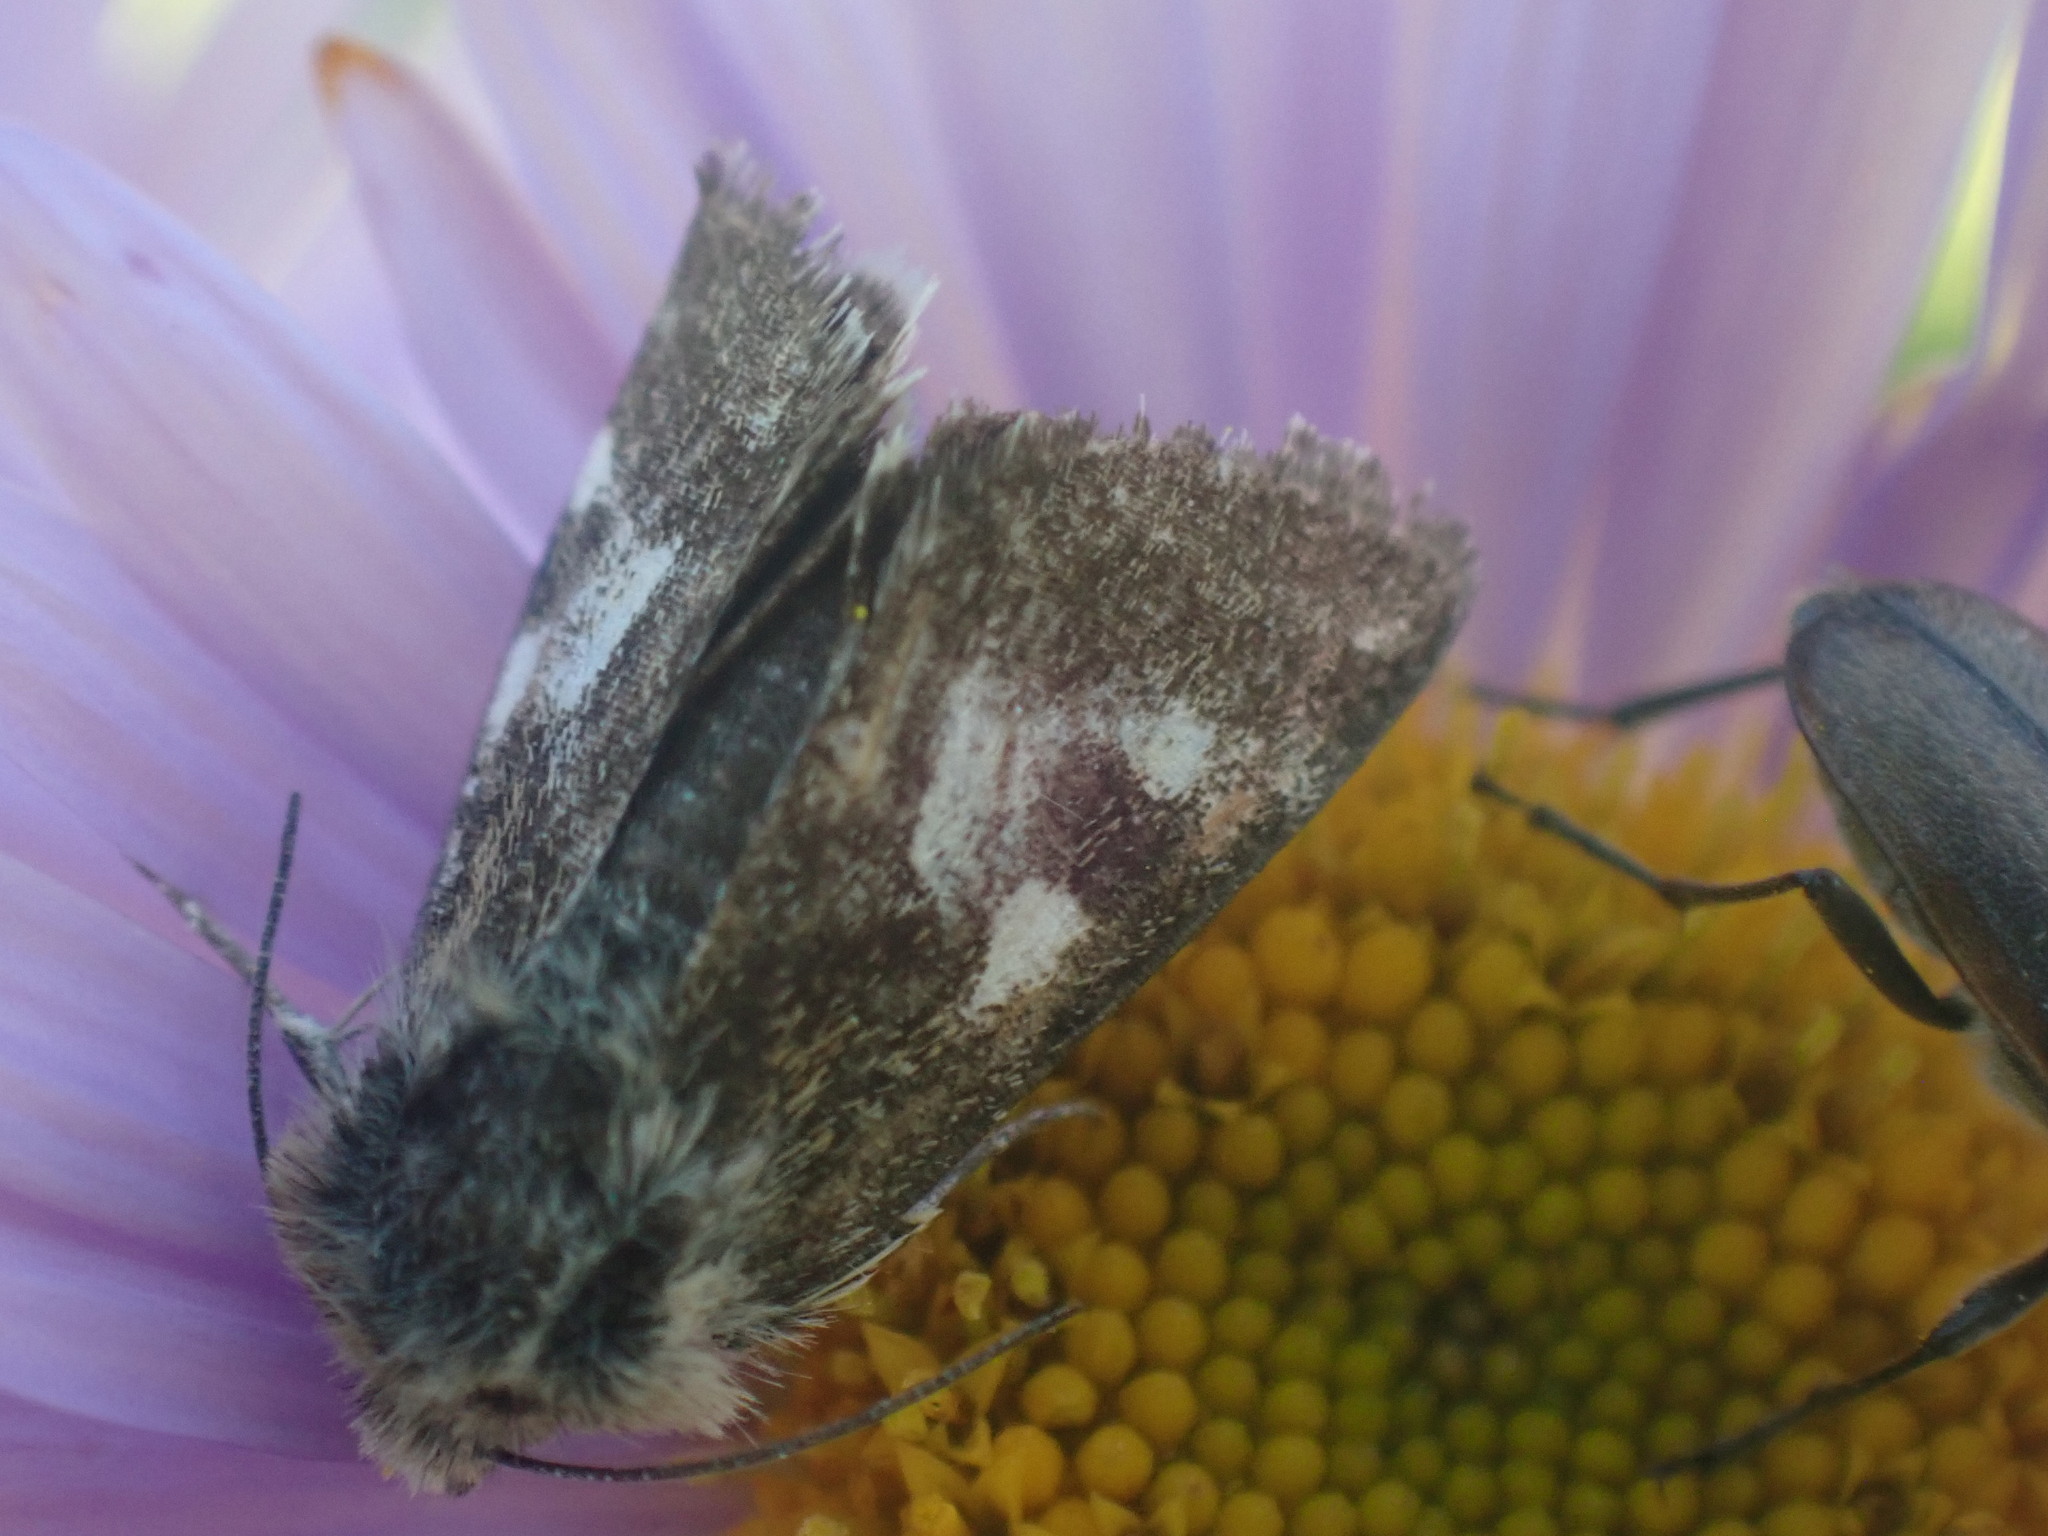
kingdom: Animalia
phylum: Arthropoda
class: Insecta
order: Lepidoptera
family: Noctuidae
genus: Eutricopis
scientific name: Eutricopis nexilis
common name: White-spotted midget moth
